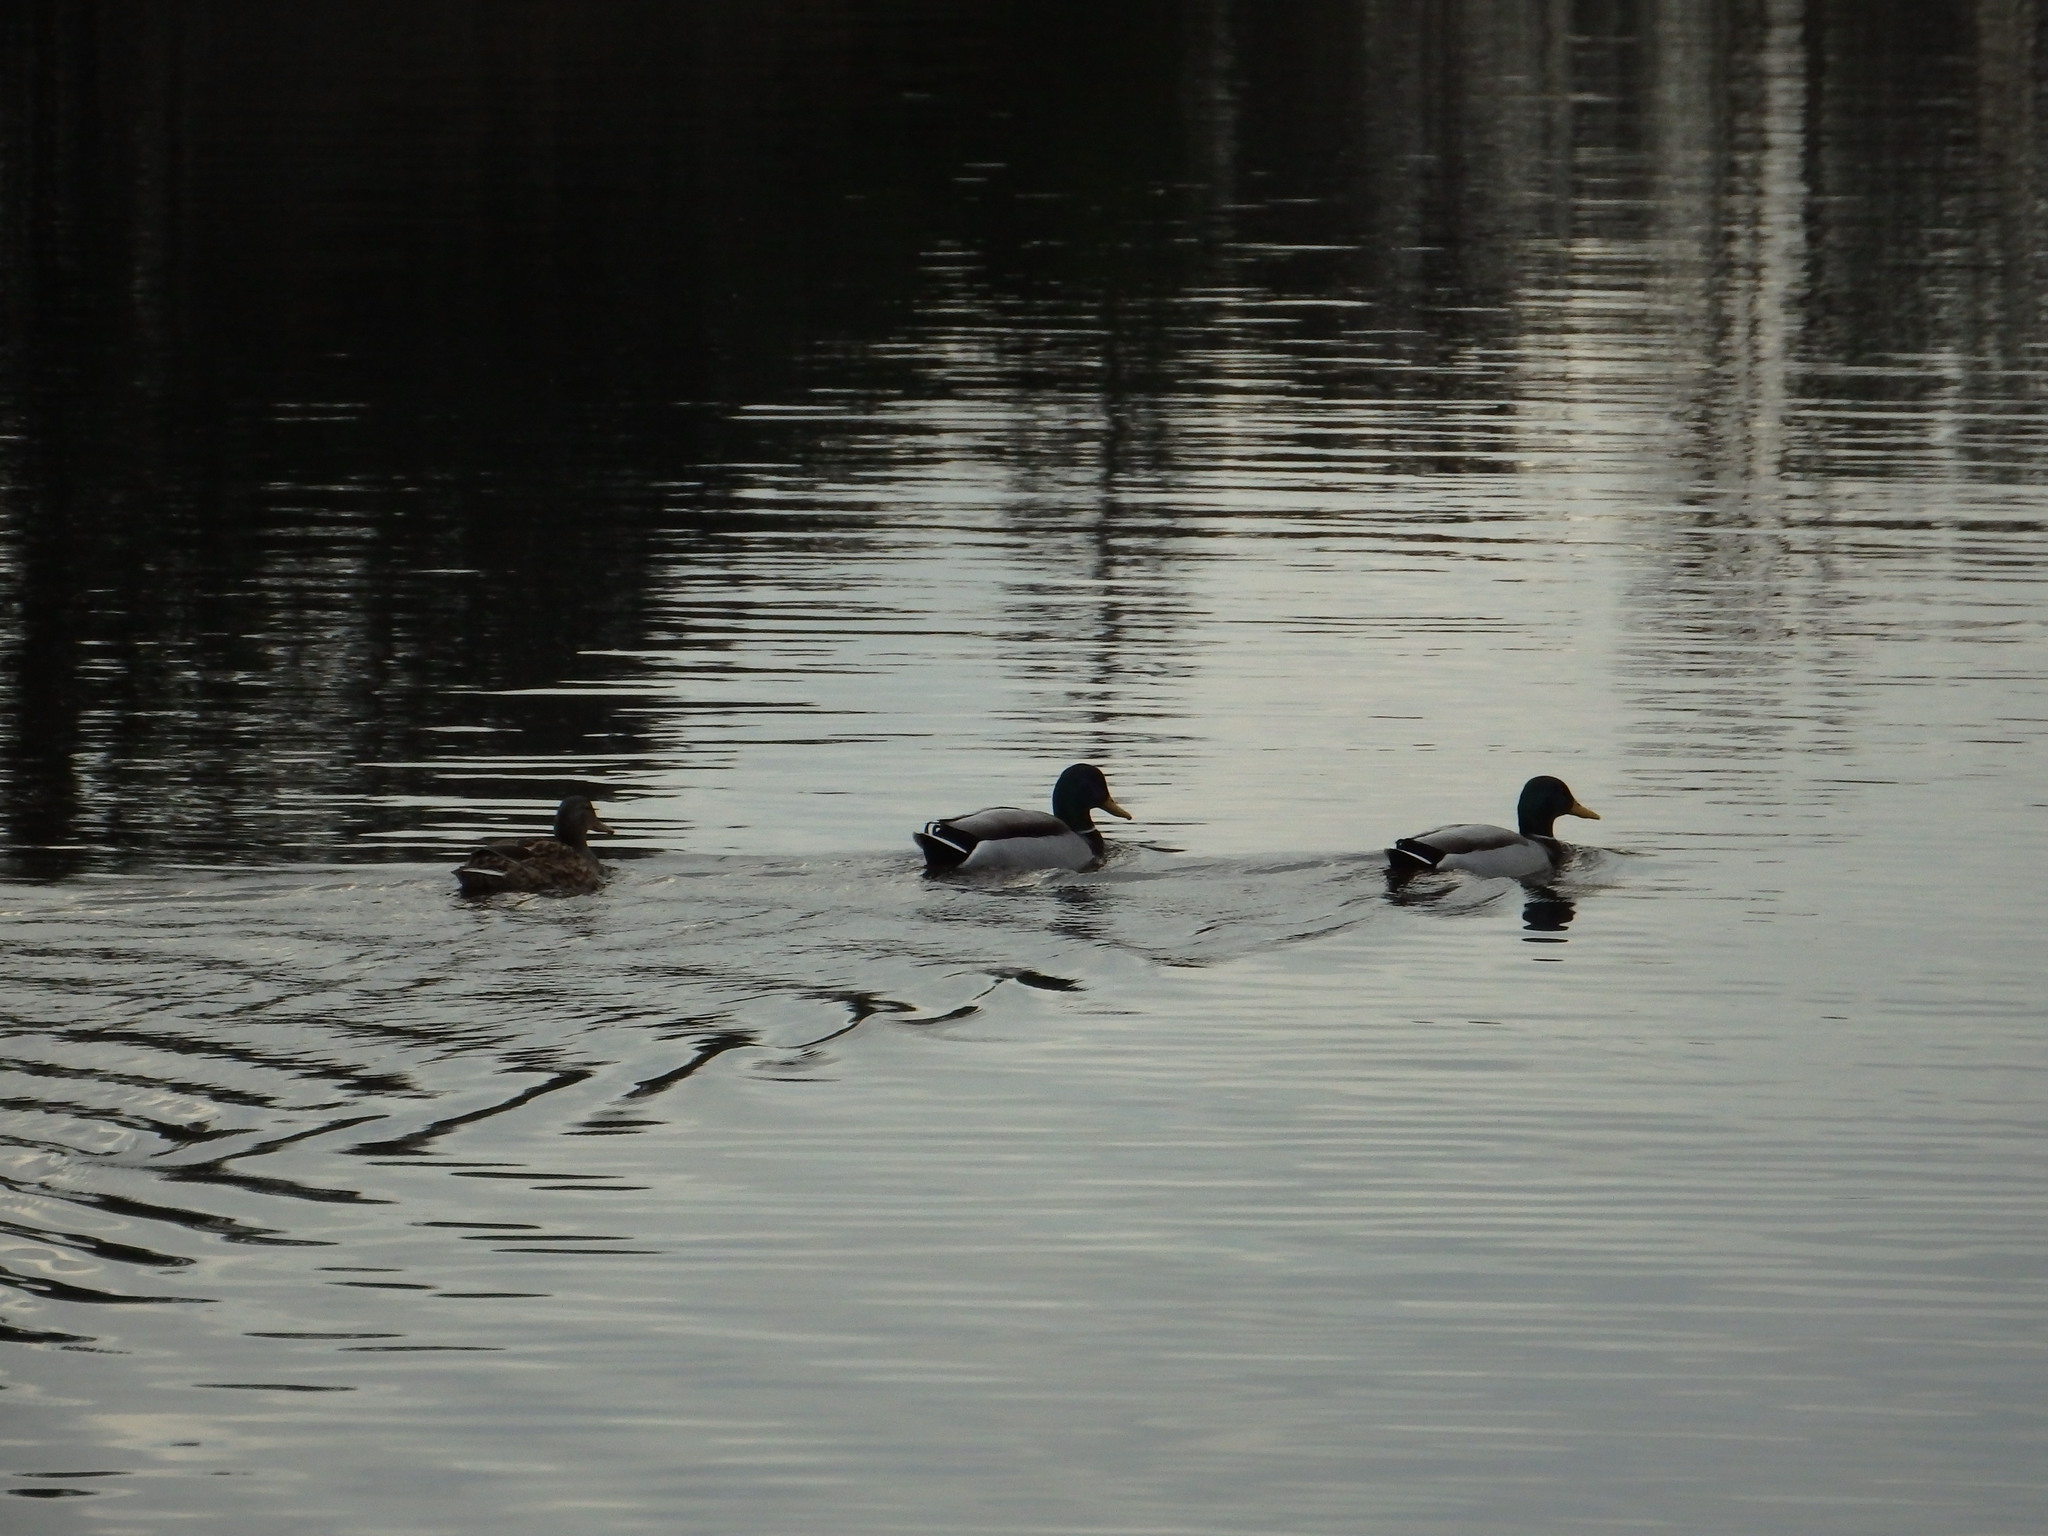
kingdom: Animalia
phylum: Chordata
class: Aves
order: Anseriformes
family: Anatidae
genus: Anas
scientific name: Anas platyrhynchos
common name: Mallard
